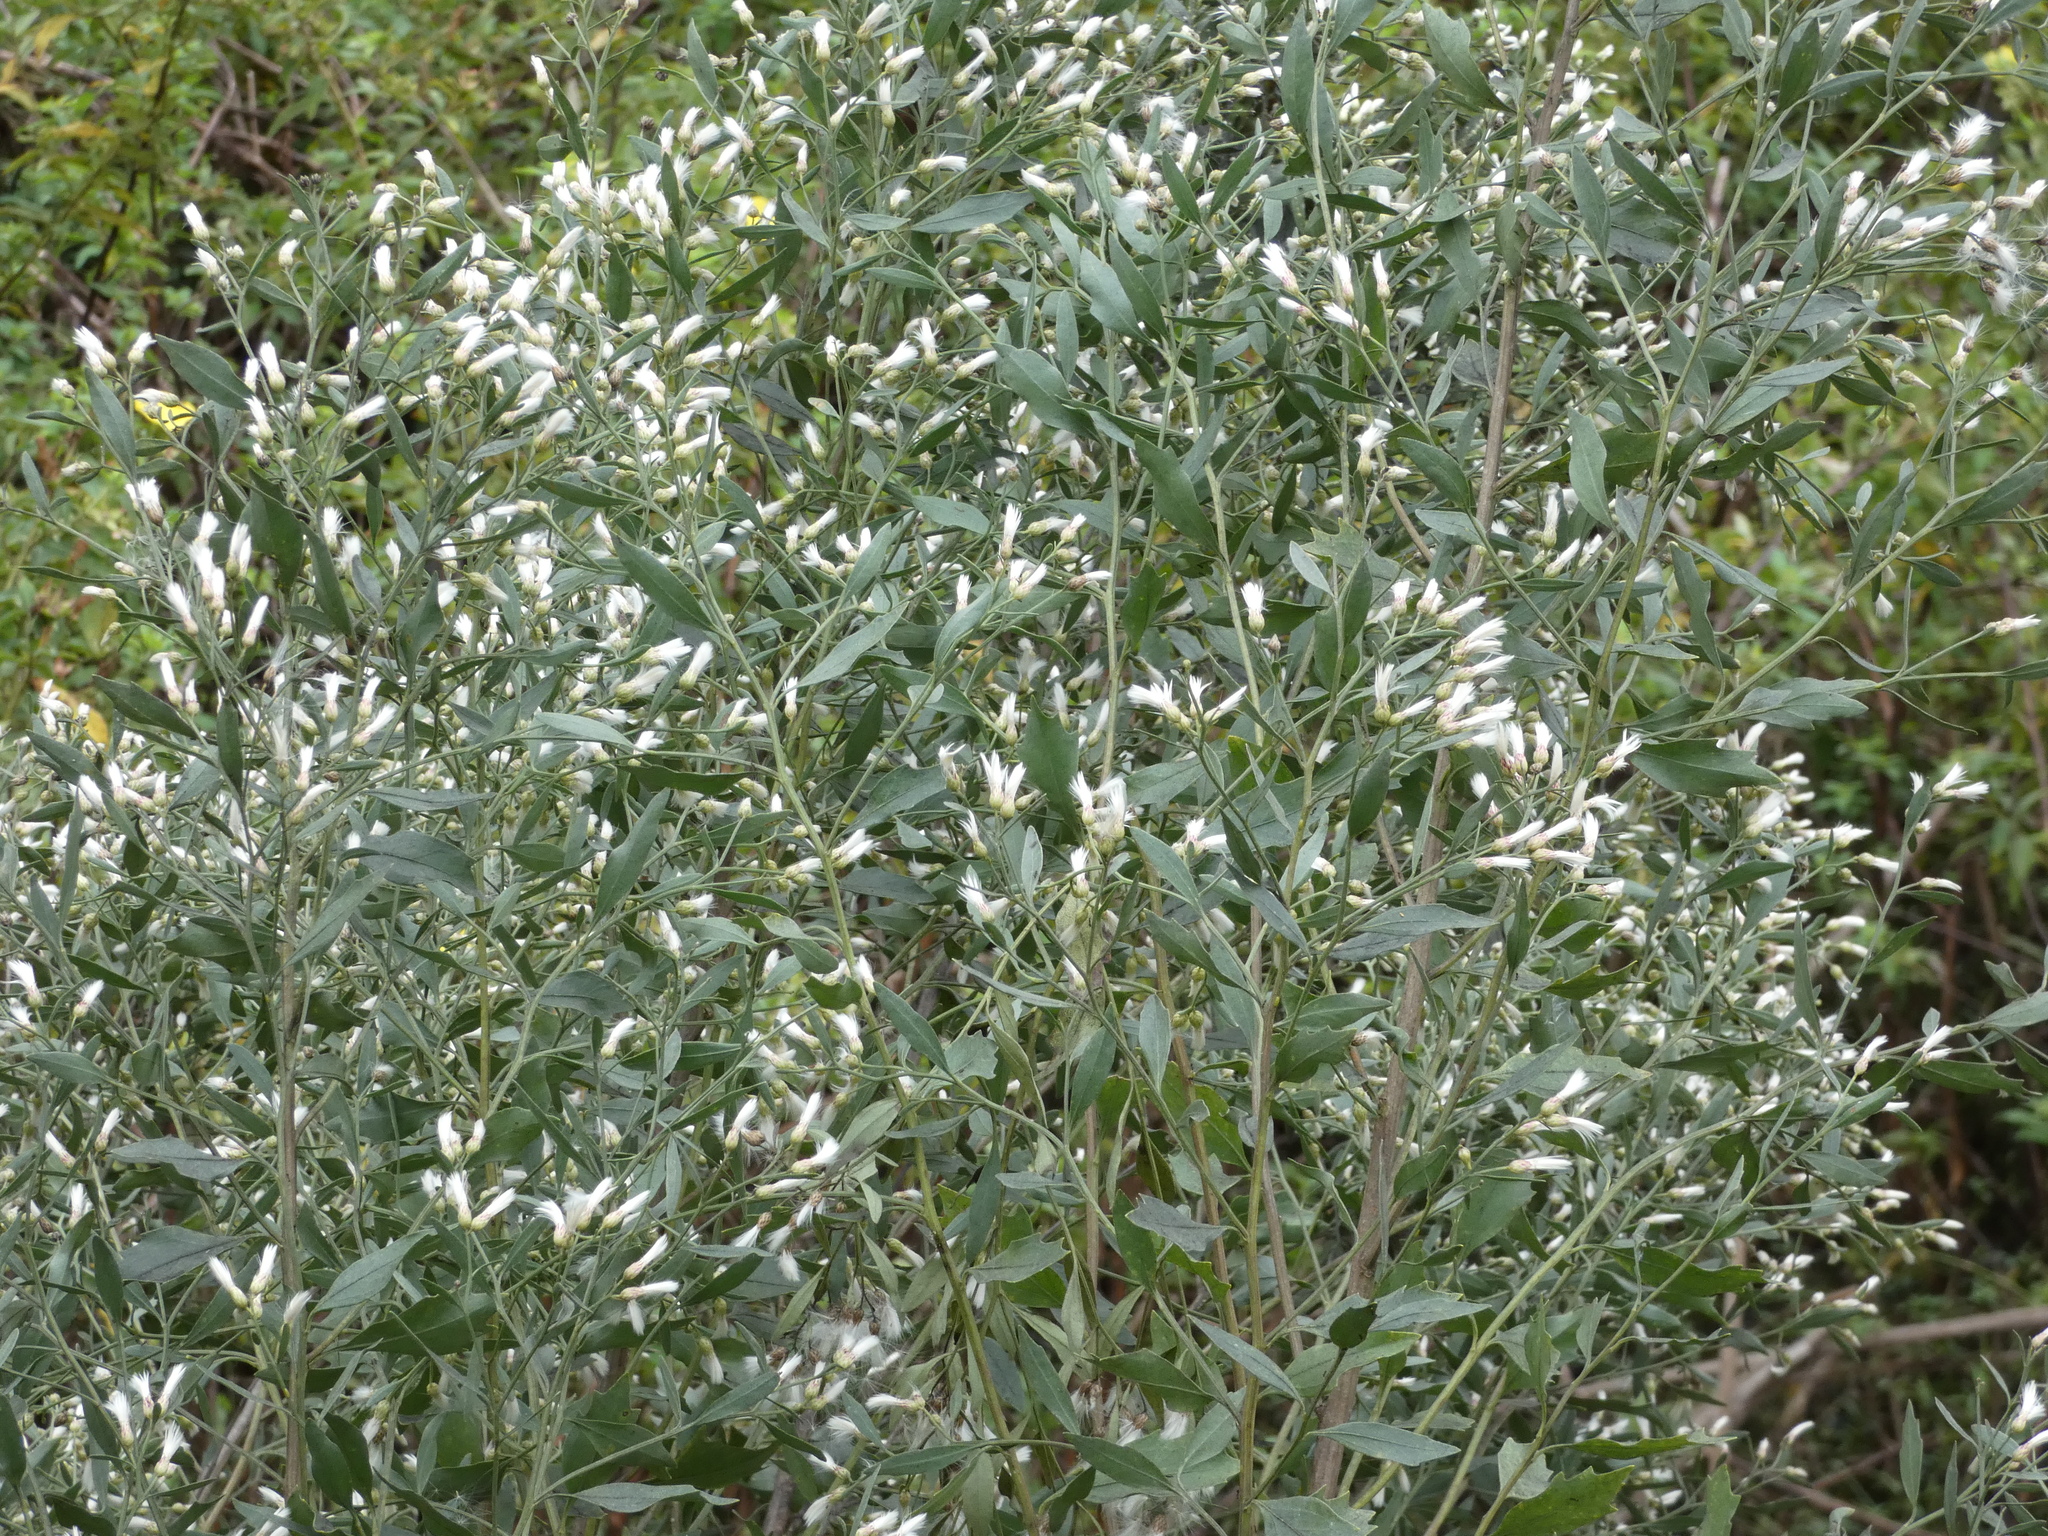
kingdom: Plantae
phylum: Tracheophyta
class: Magnoliopsida
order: Asterales
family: Asteraceae
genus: Baccharis
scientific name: Baccharis halimifolia
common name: Eastern baccharis
